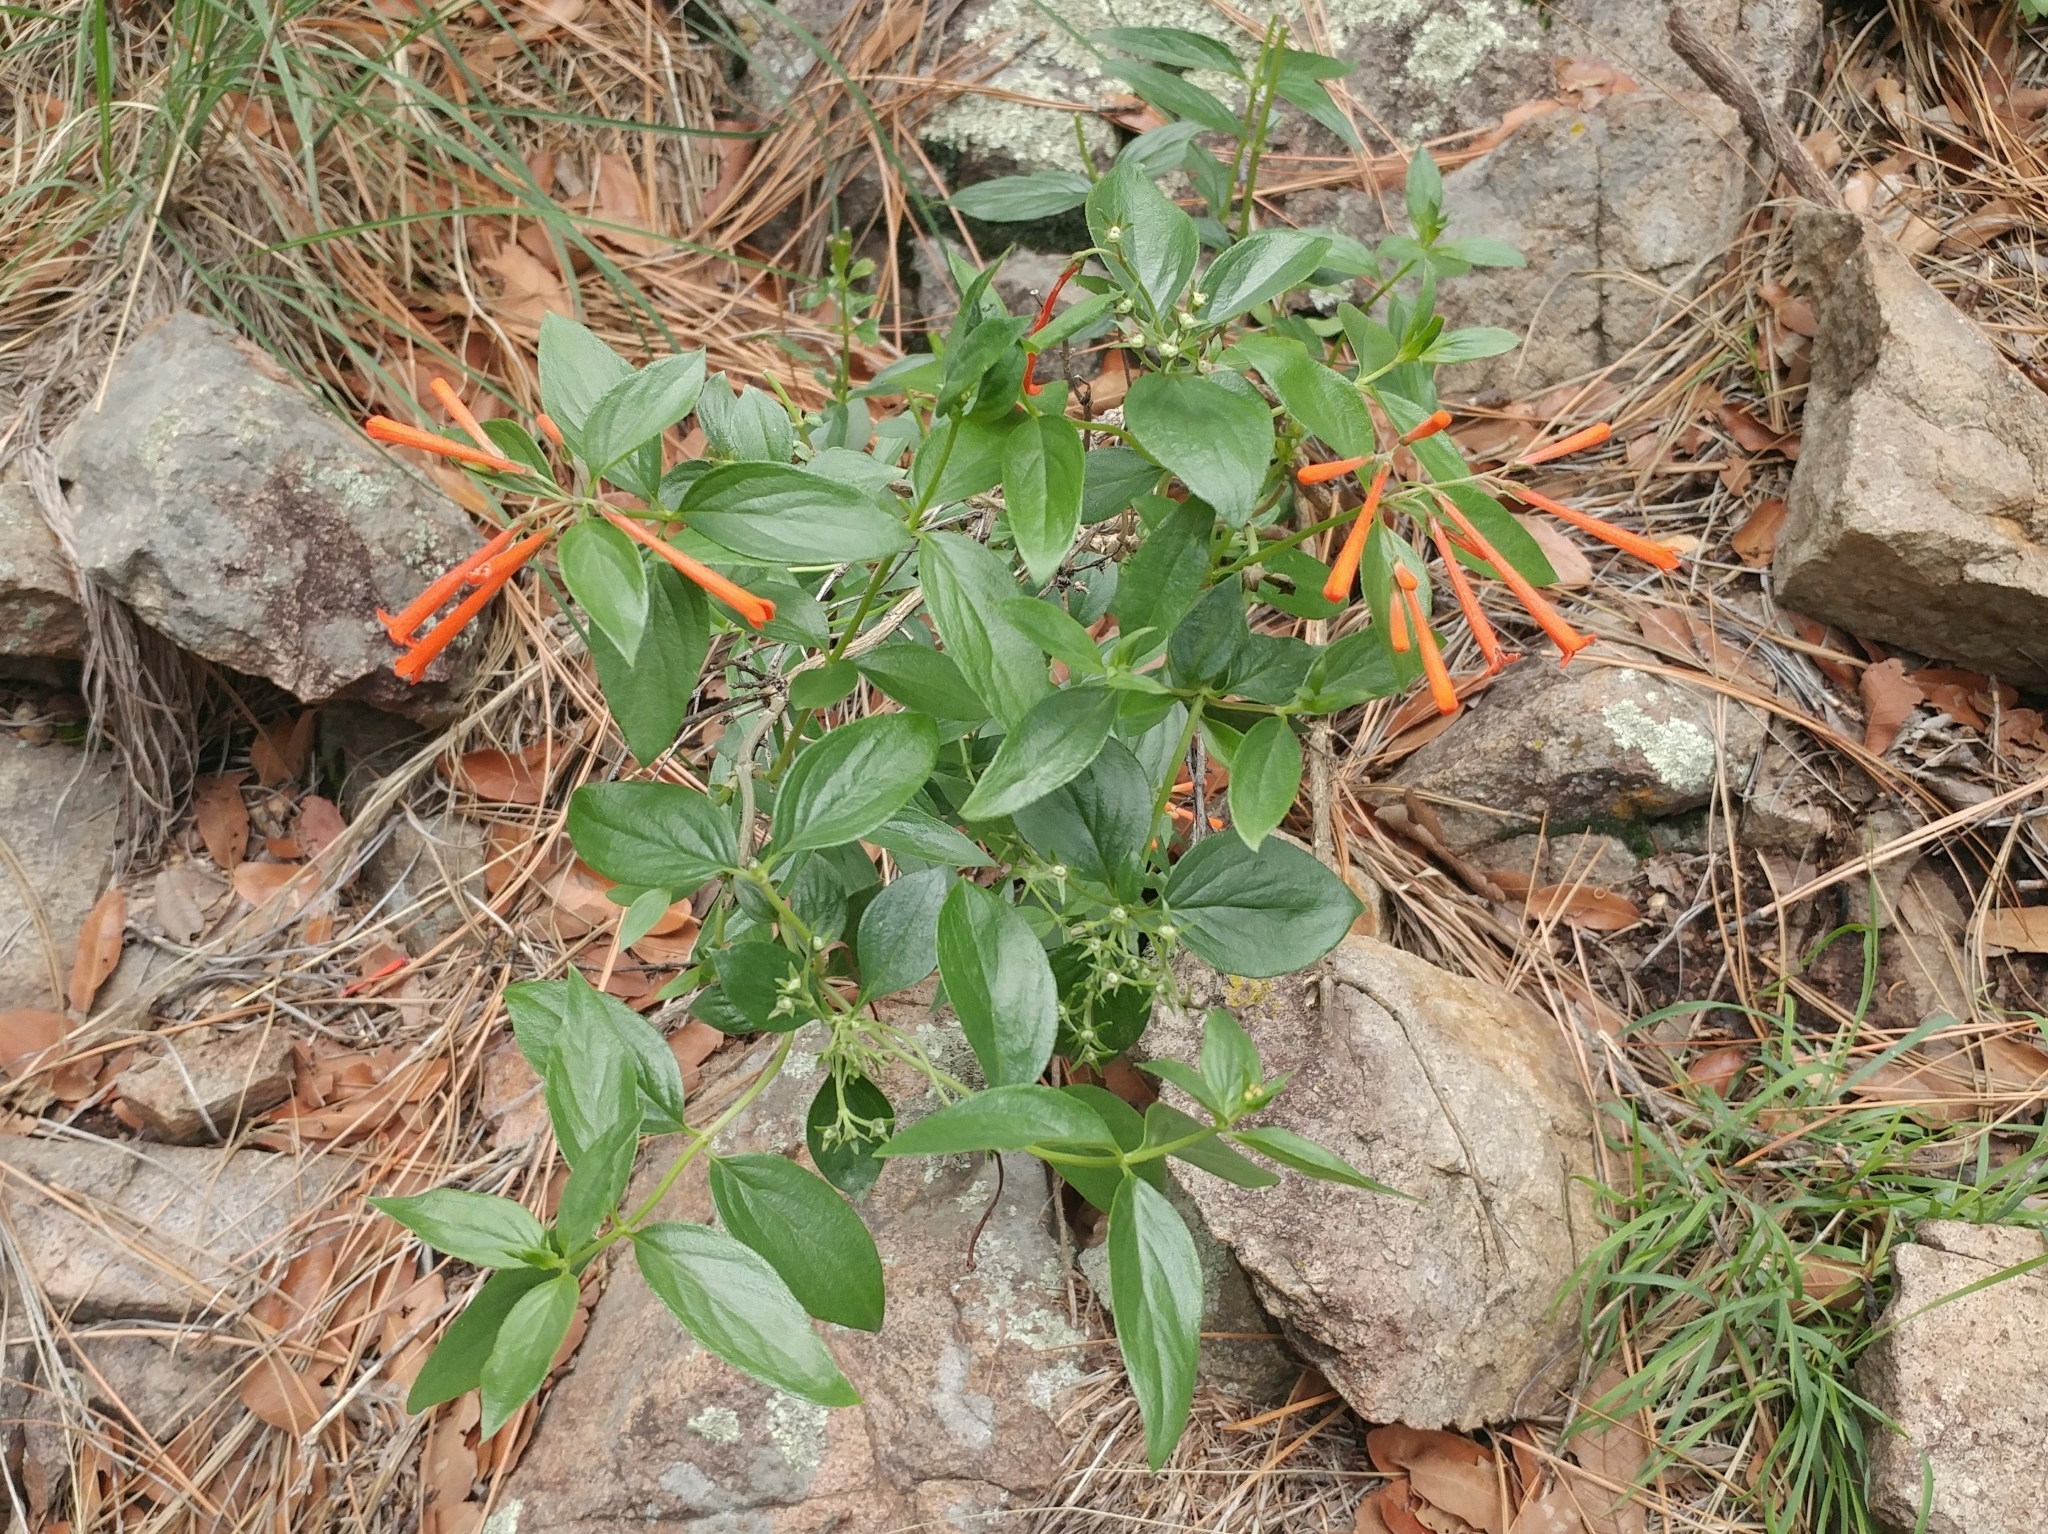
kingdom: Plantae
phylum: Tracheophyta
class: Magnoliopsida
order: Gentianales
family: Rubiaceae
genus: Bouvardia
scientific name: Bouvardia ternifolia
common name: Scarlet bouvardia
